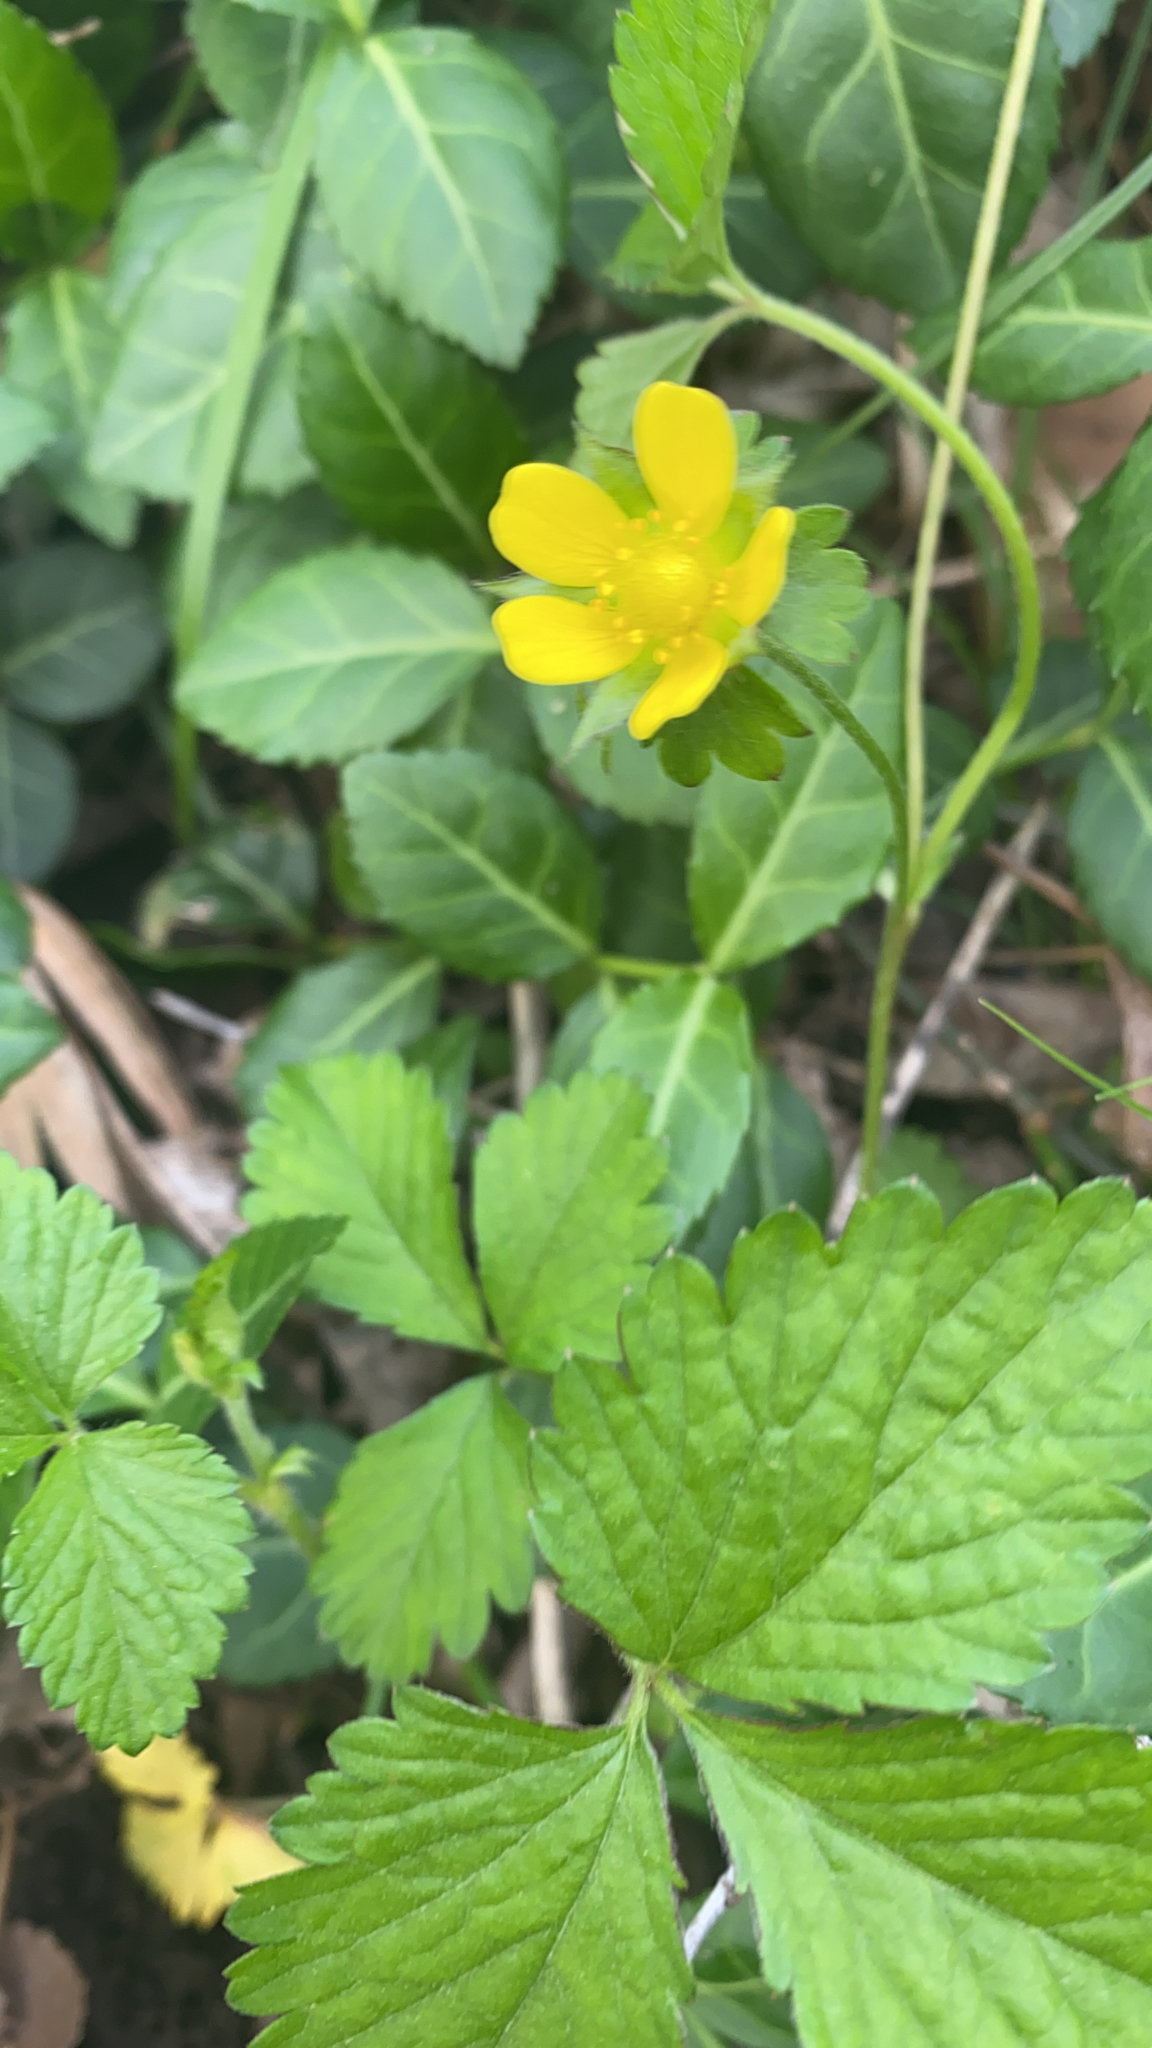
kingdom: Plantae
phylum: Tracheophyta
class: Magnoliopsida
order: Rosales
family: Rosaceae
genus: Potentilla
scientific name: Potentilla indica
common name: Yellow-flowered strawberry
